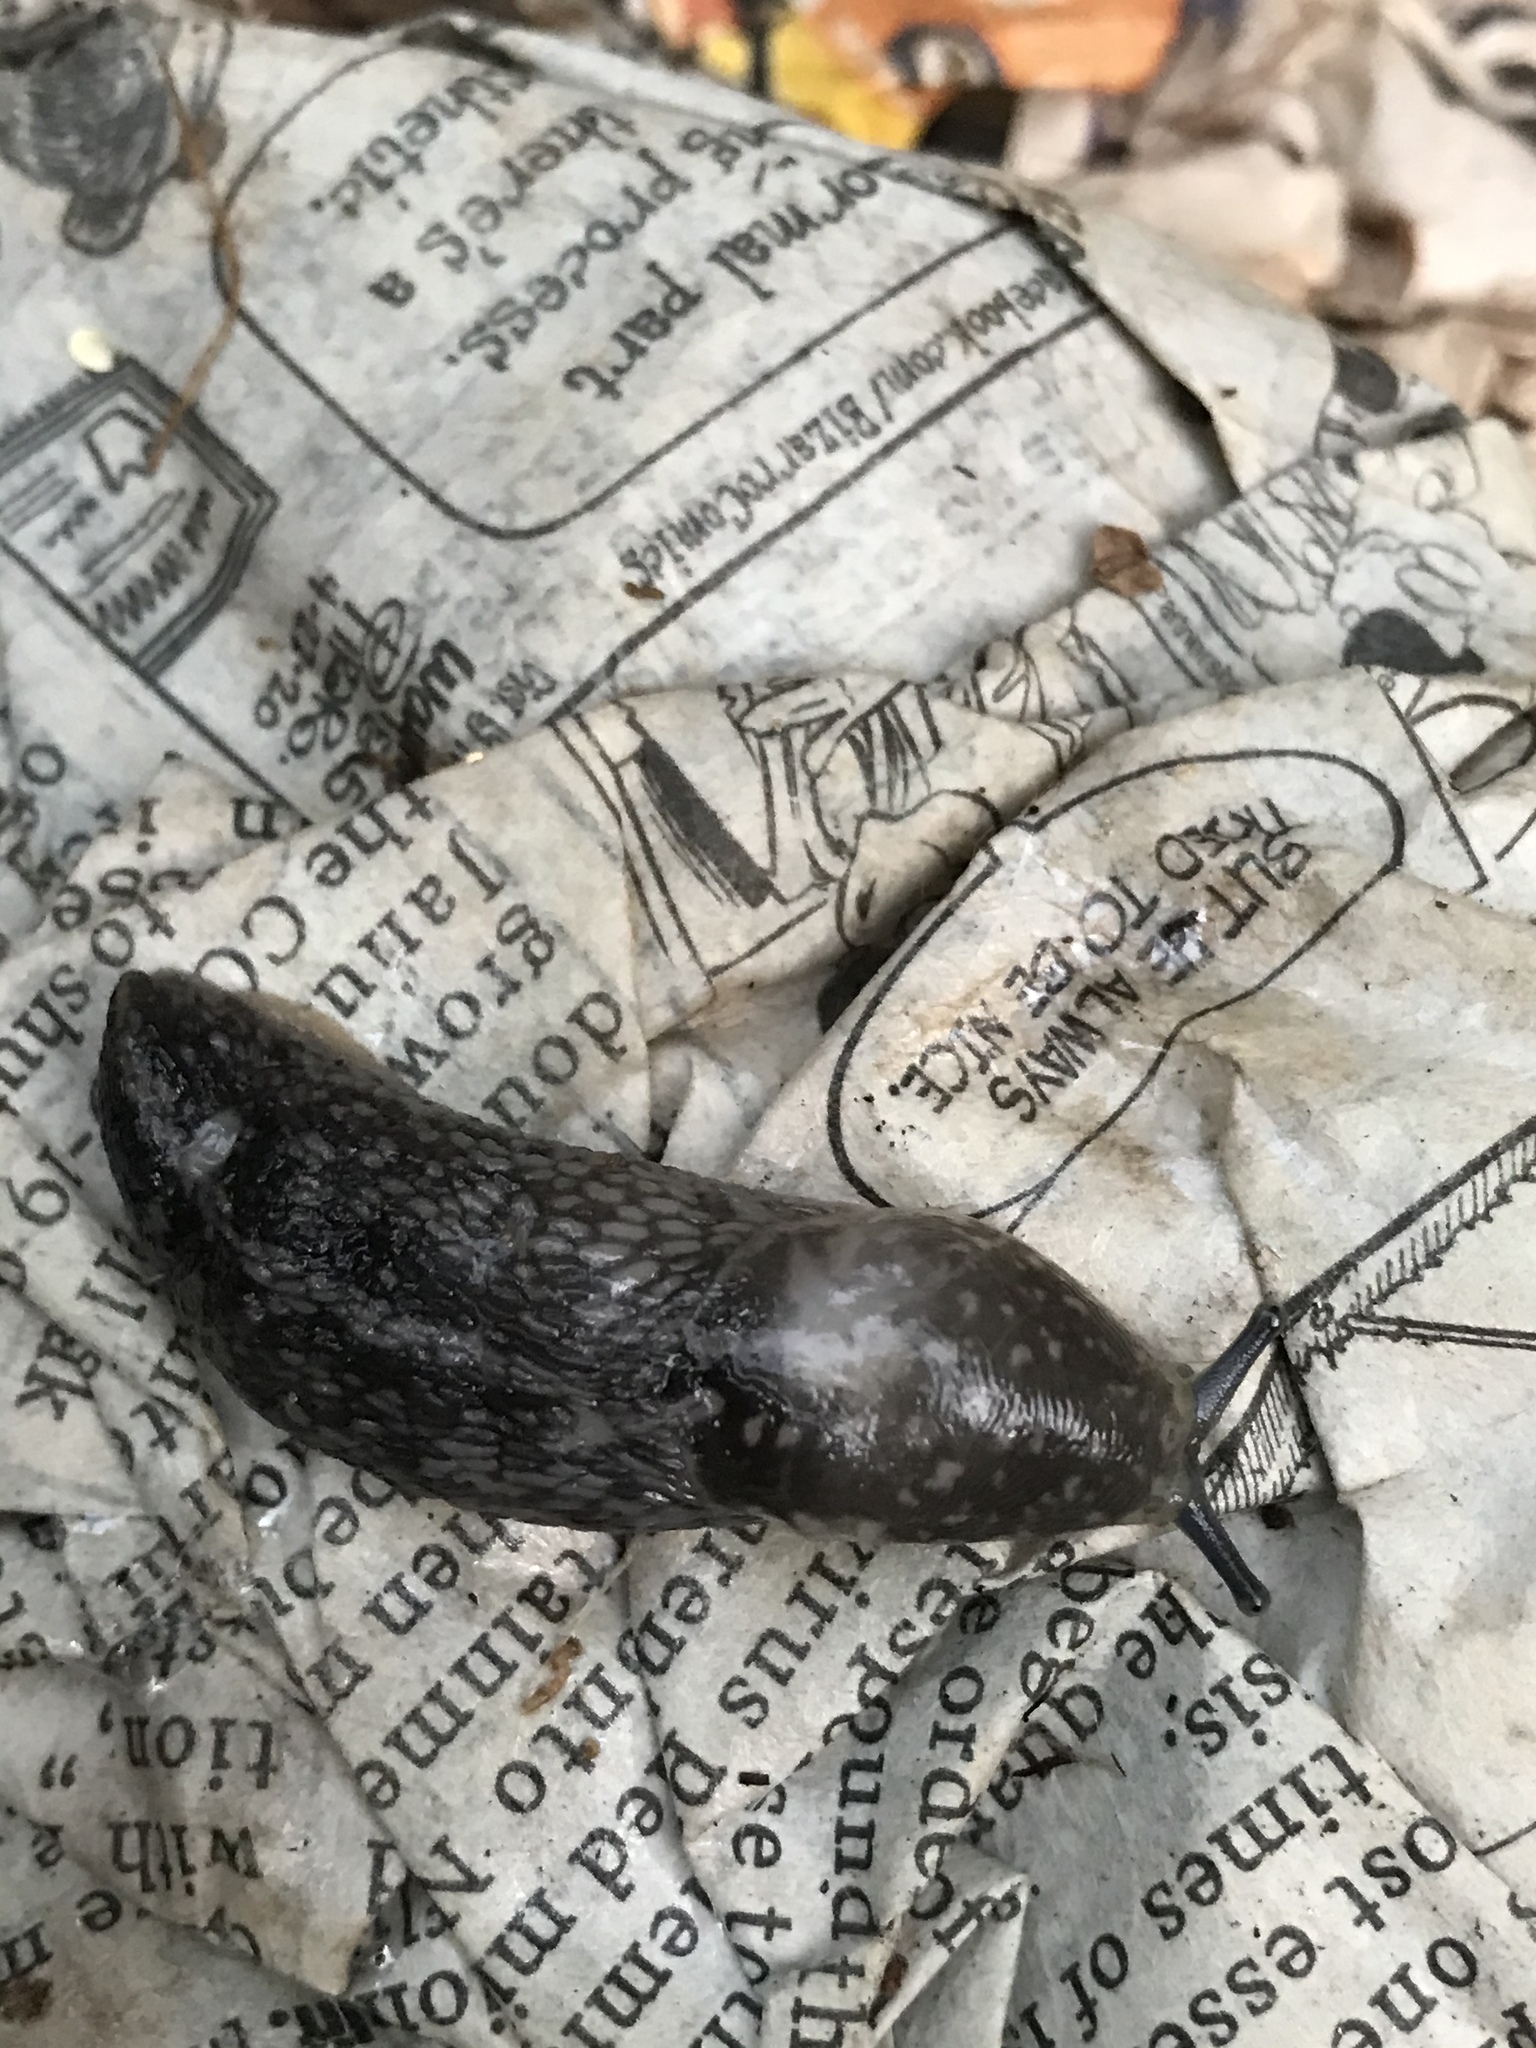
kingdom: Animalia
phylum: Mollusca
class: Gastropoda
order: Stylommatophora
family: Limacidae
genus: Limacus
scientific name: Limacus flavus
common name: Yellow gardenslug
